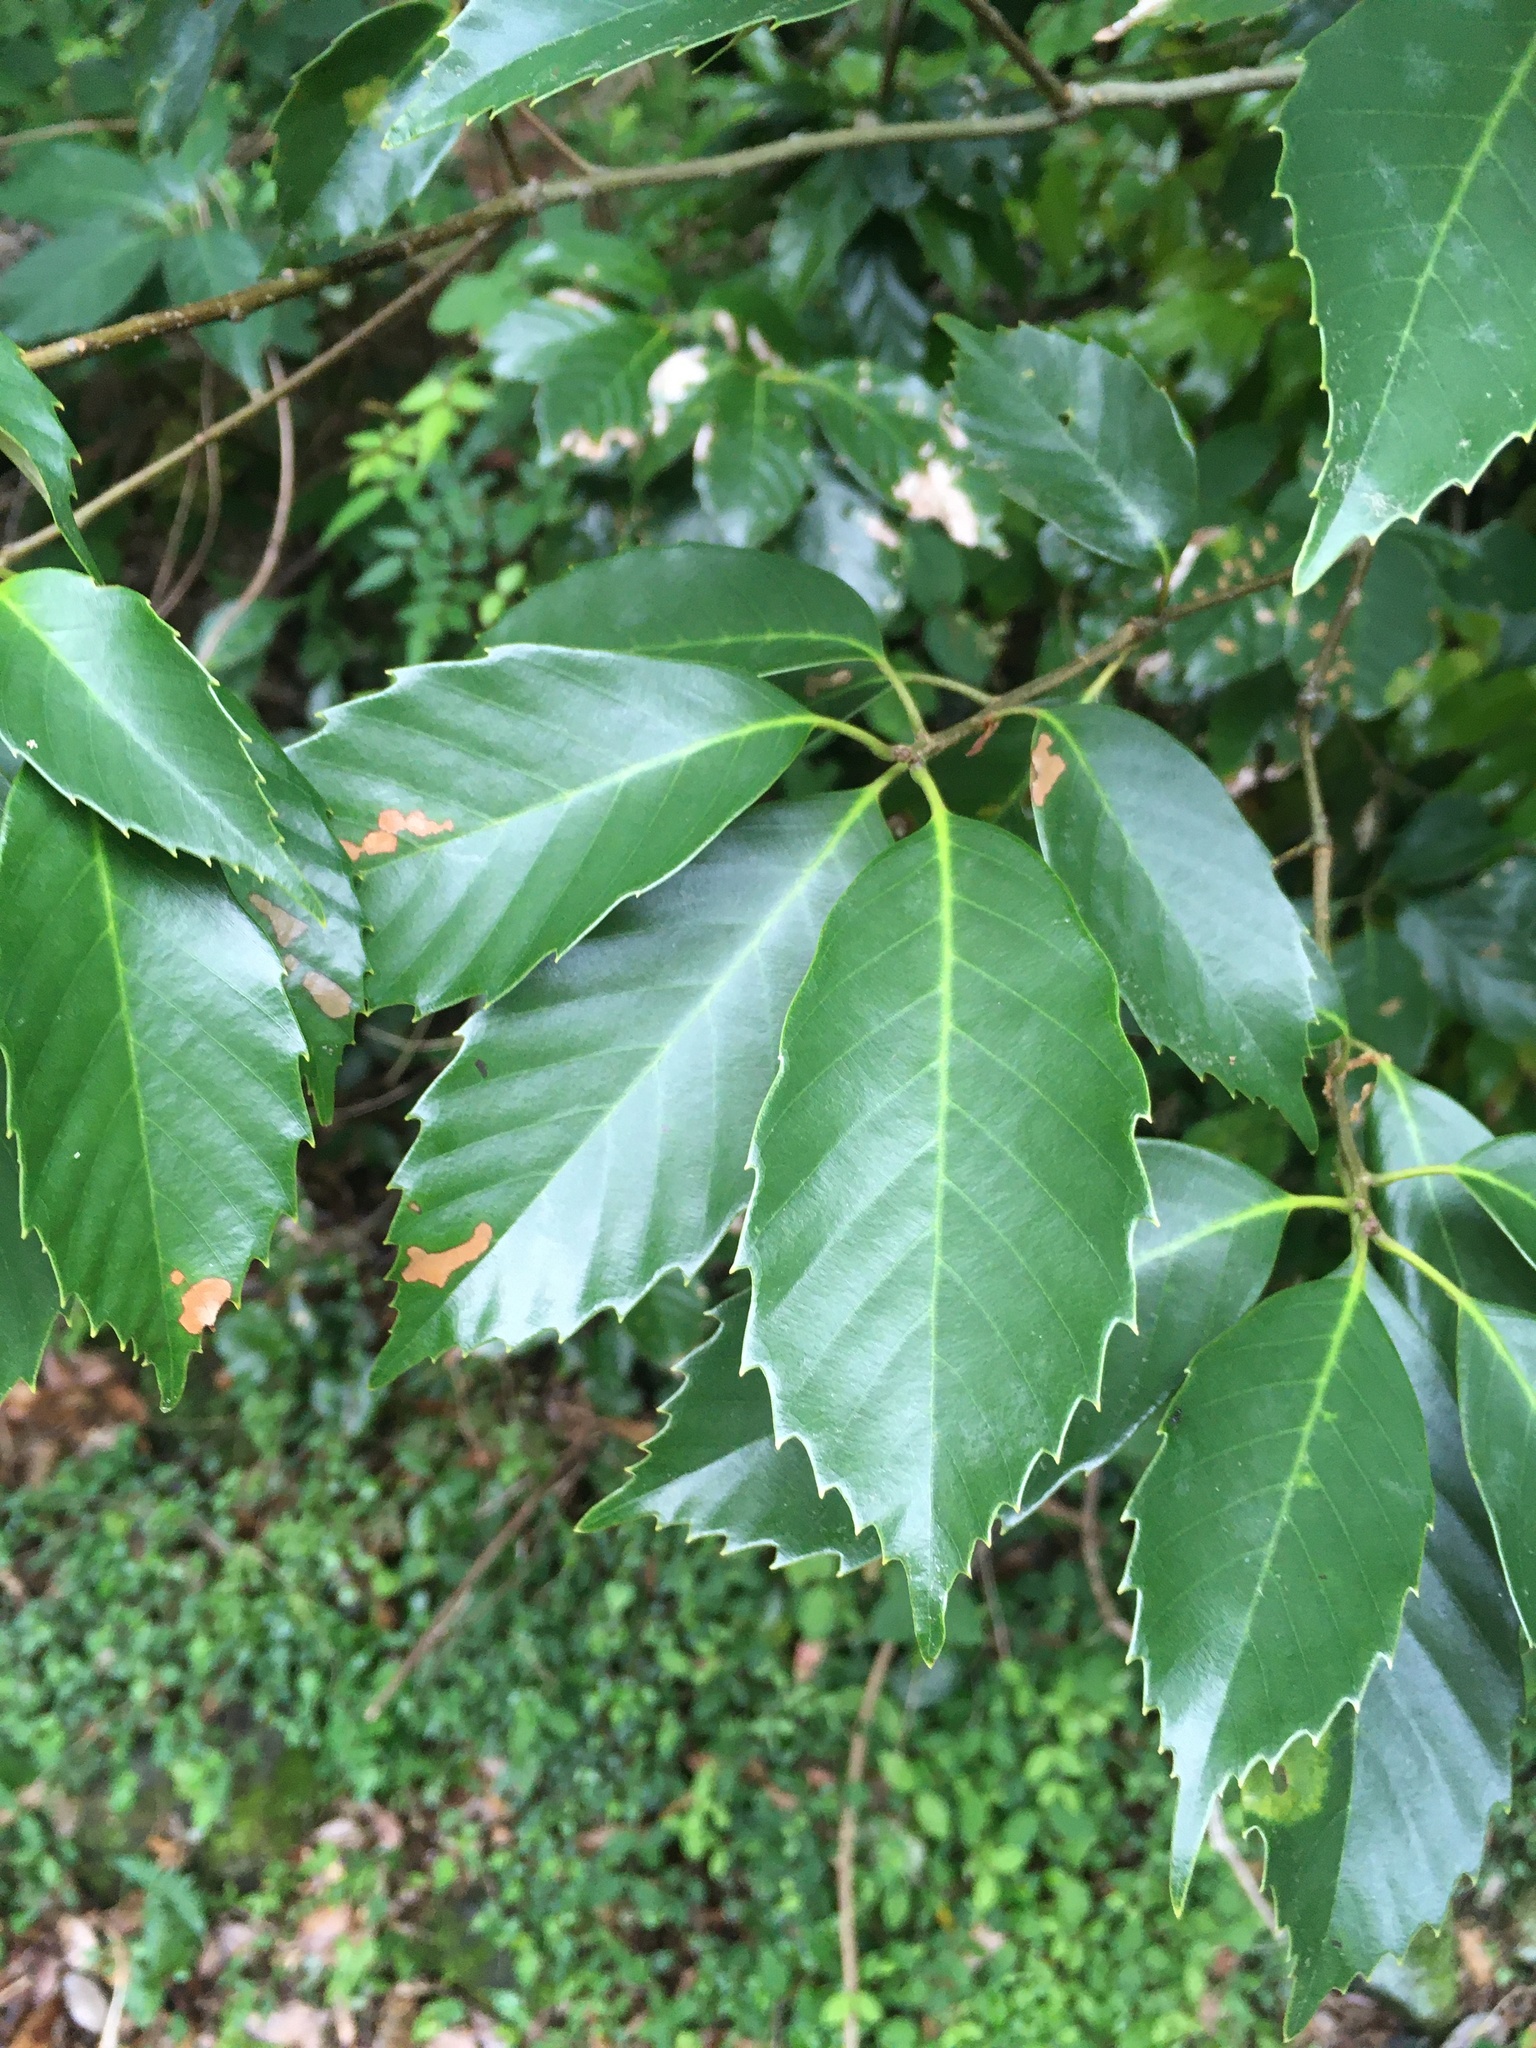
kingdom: Plantae
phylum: Tracheophyta
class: Magnoliopsida
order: Fagales
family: Fagaceae
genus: Quercus
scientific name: Quercus glauca
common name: Ring-cup oak
